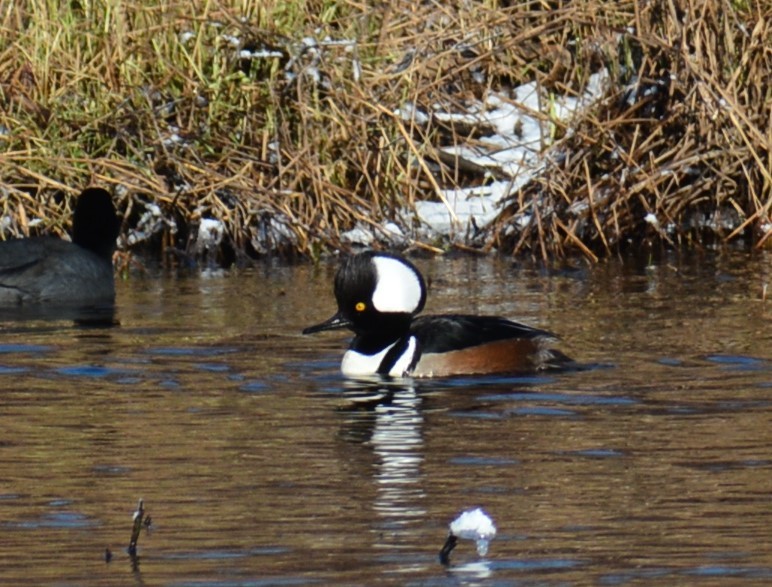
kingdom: Animalia
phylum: Chordata
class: Aves
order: Anseriformes
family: Anatidae
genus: Lophodytes
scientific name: Lophodytes cucullatus
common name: Hooded merganser
